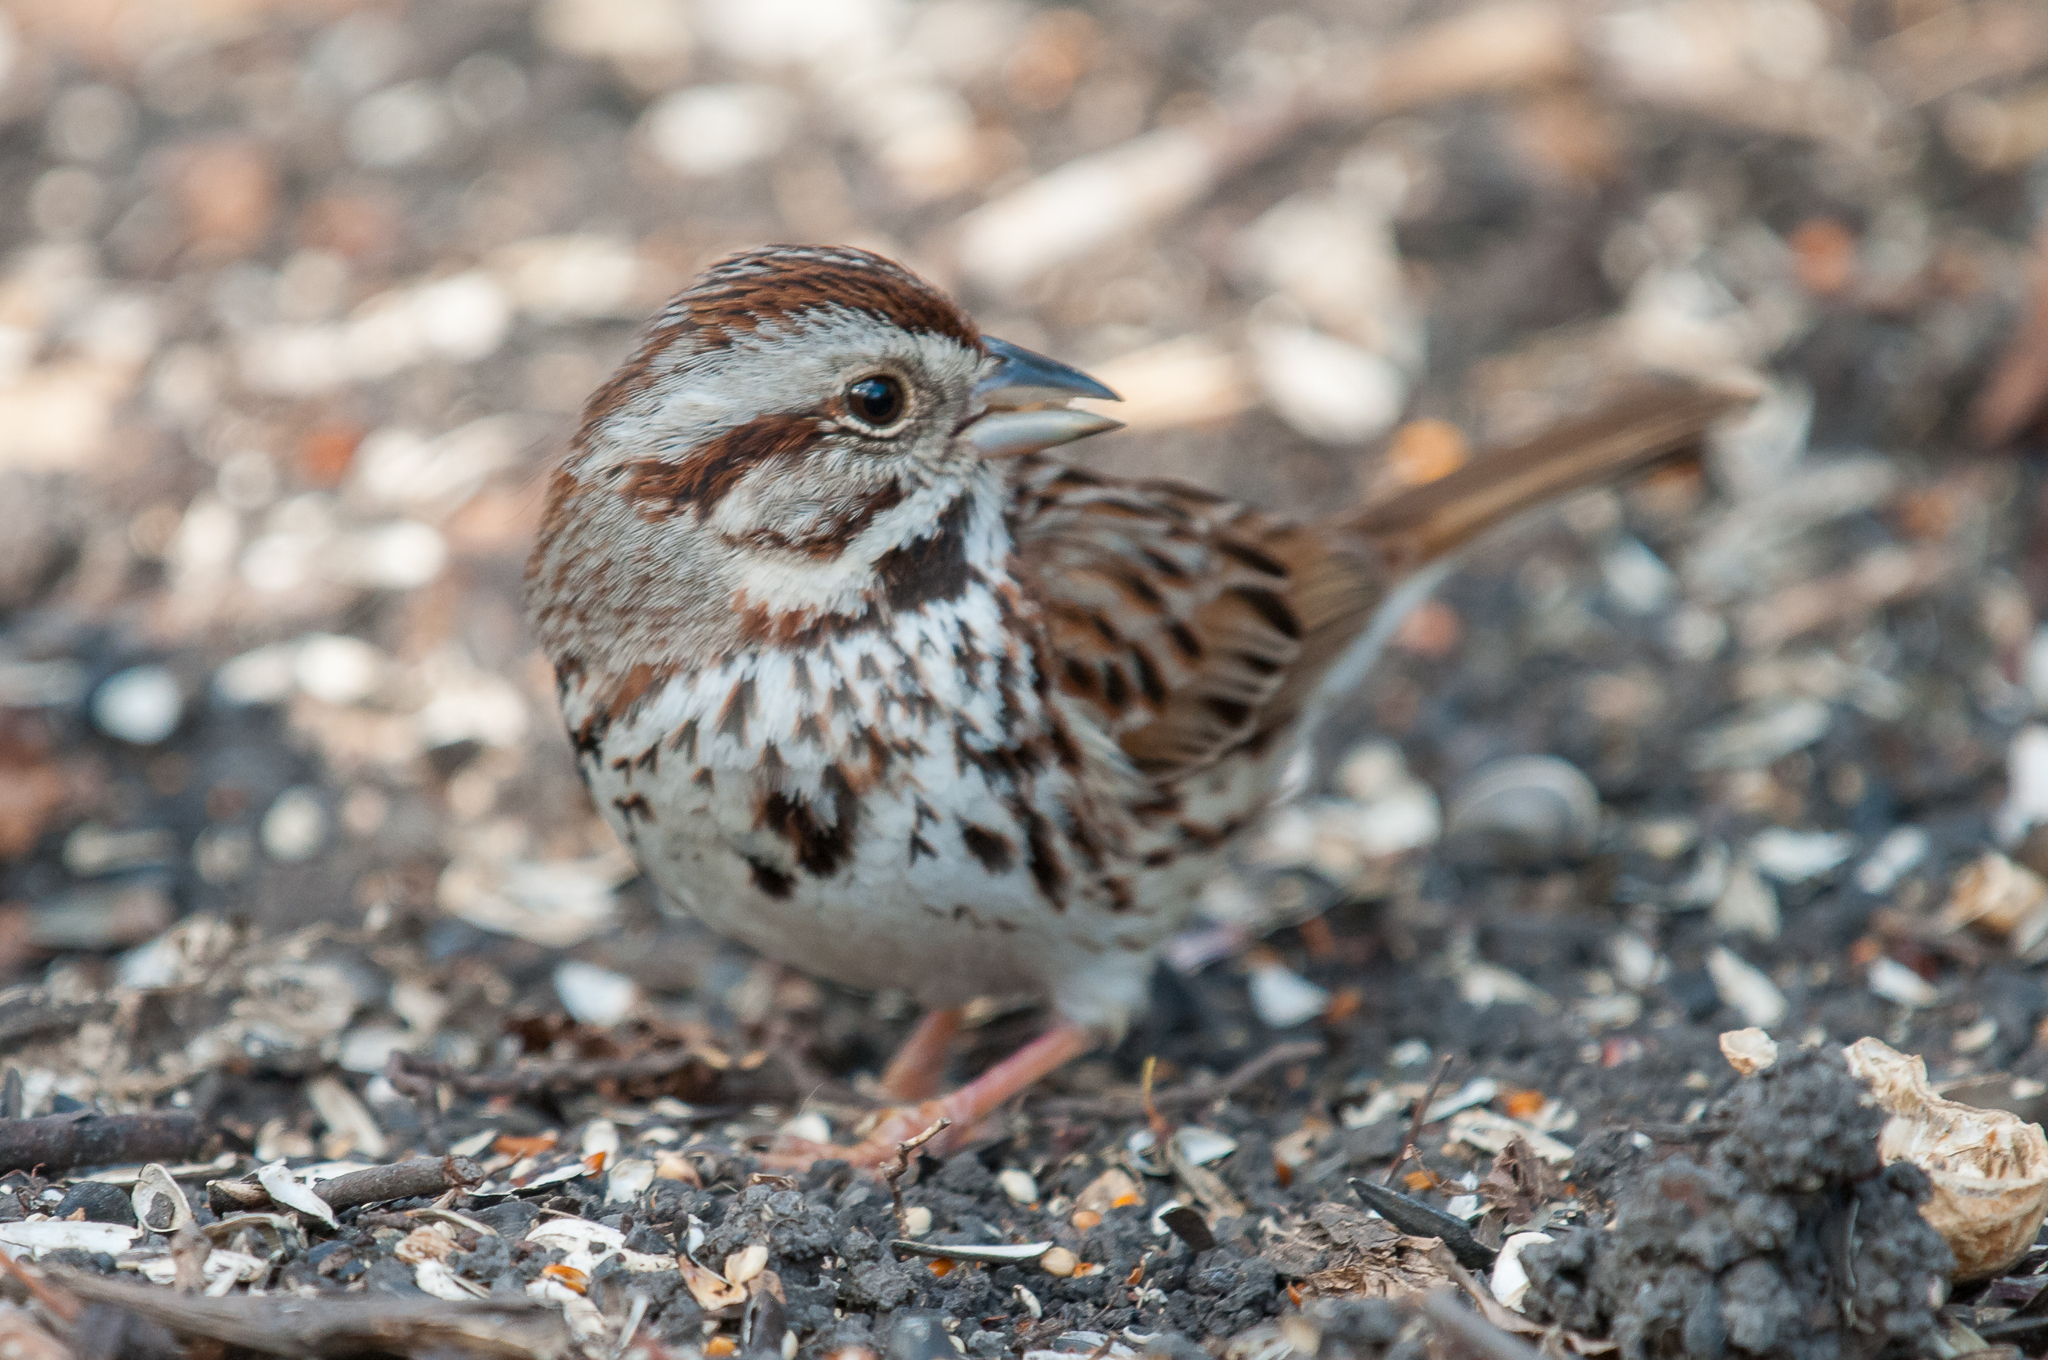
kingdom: Animalia
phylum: Chordata
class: Aves
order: Passeriformes
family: Passerellidae
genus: Melospiza
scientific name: Melospiza melodia
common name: Song sparrow
